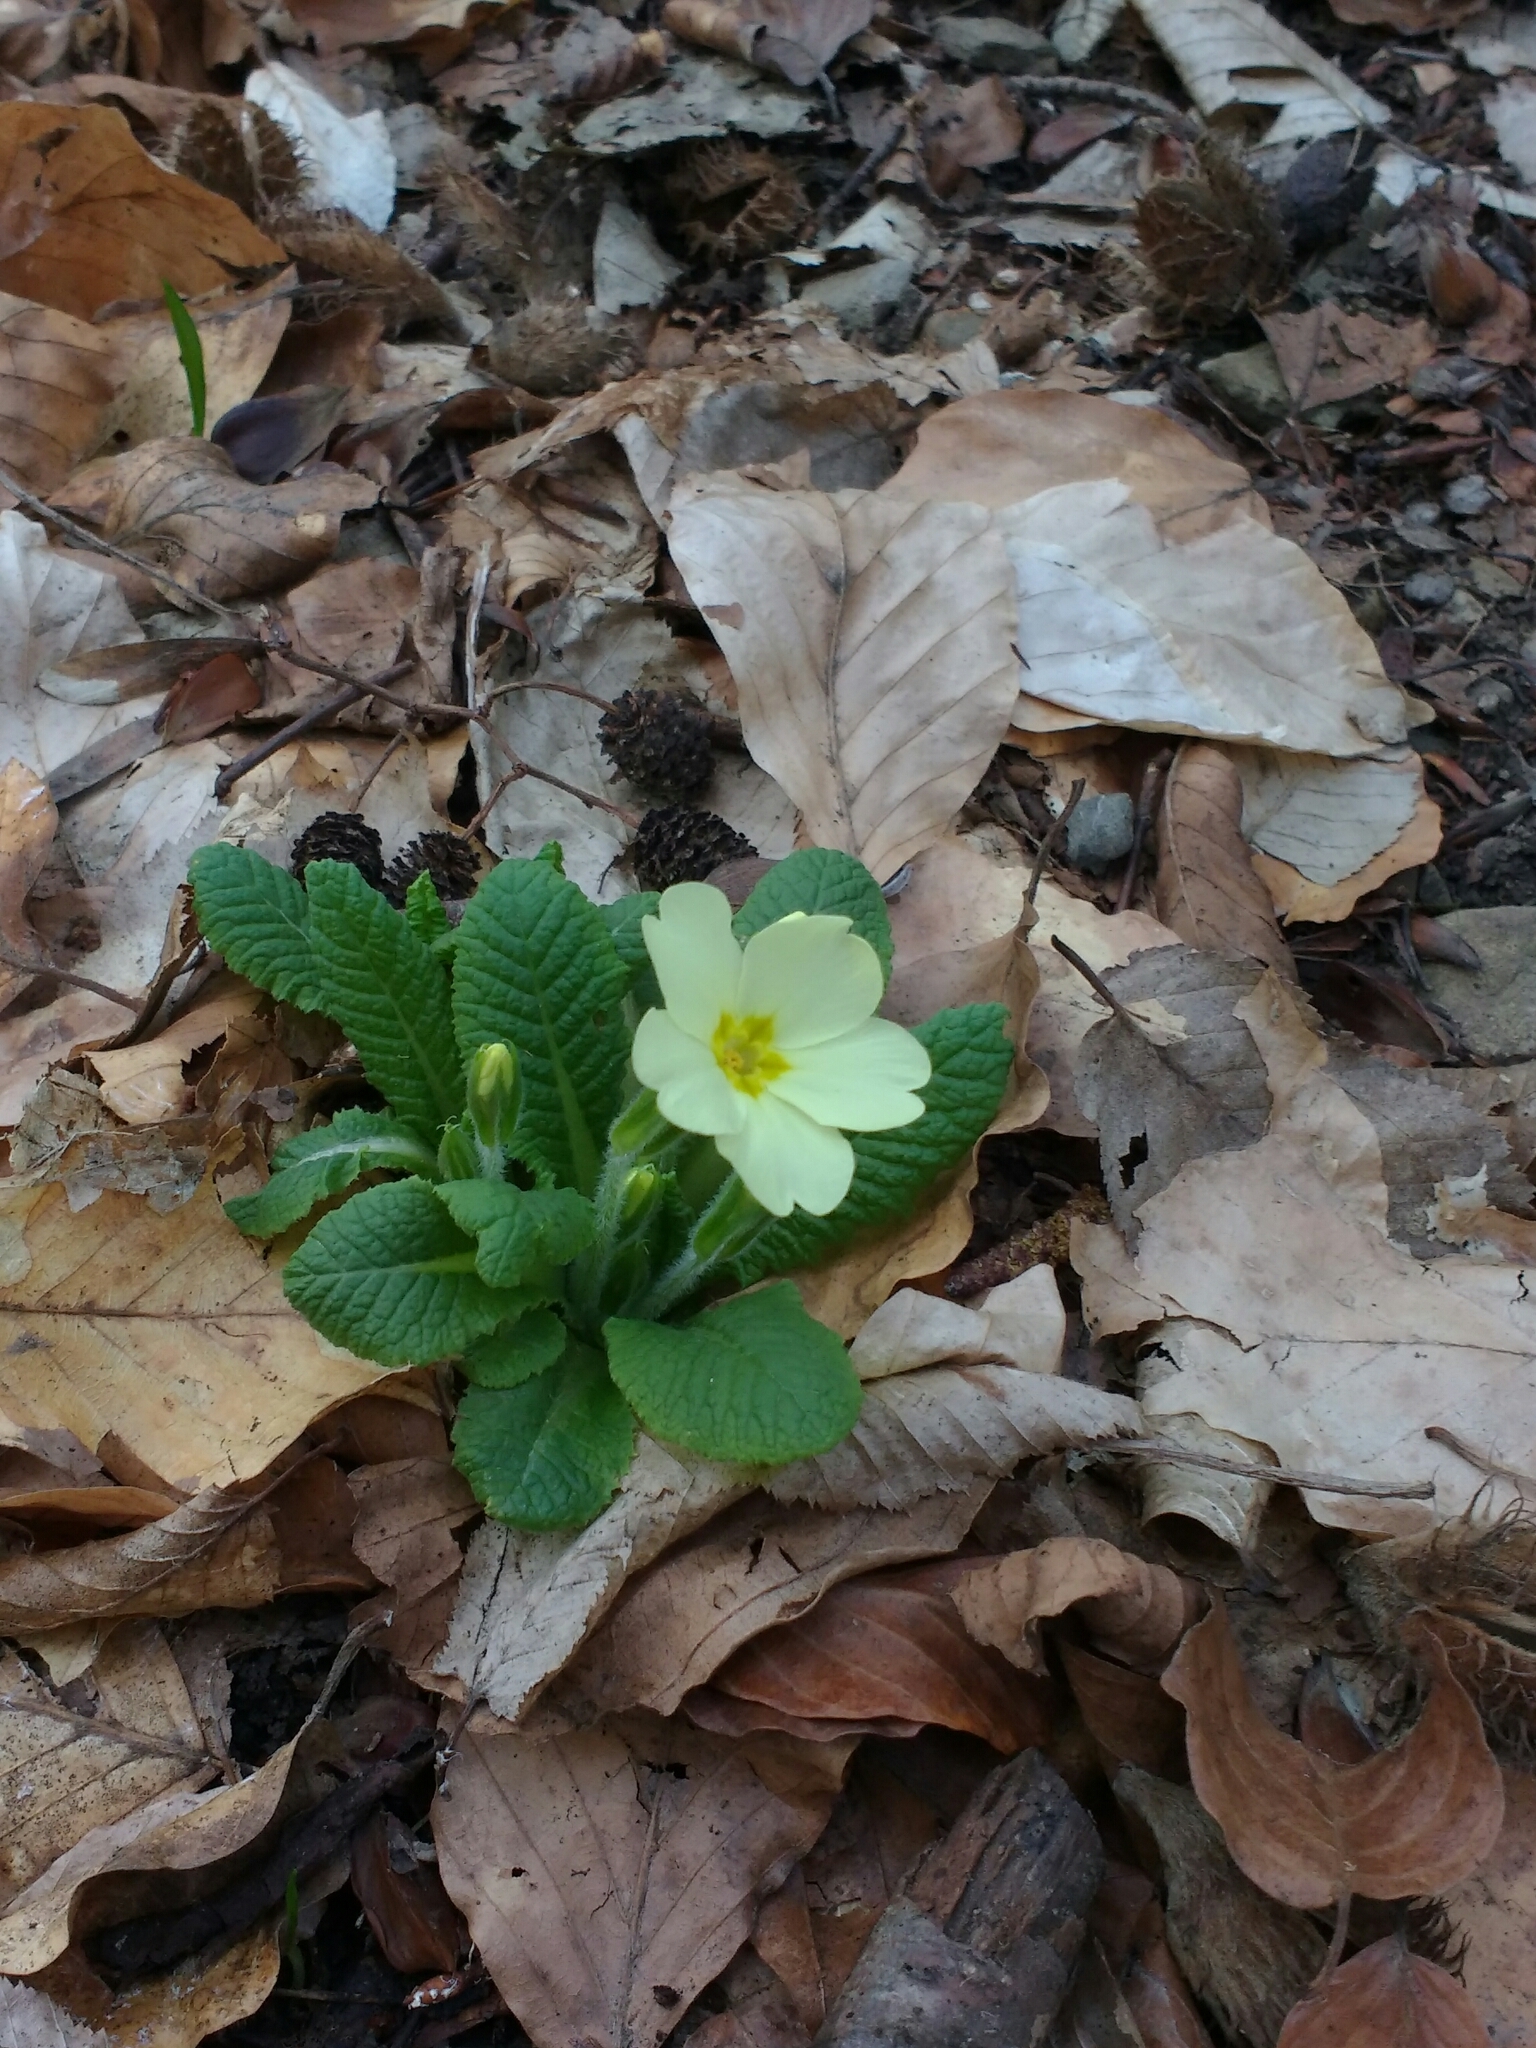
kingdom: Plantae
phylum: Tracheophyta
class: Magnoliopsida
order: Ericales
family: Primulaceae
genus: Primula
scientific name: Primula vulgaris
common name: Primrose
